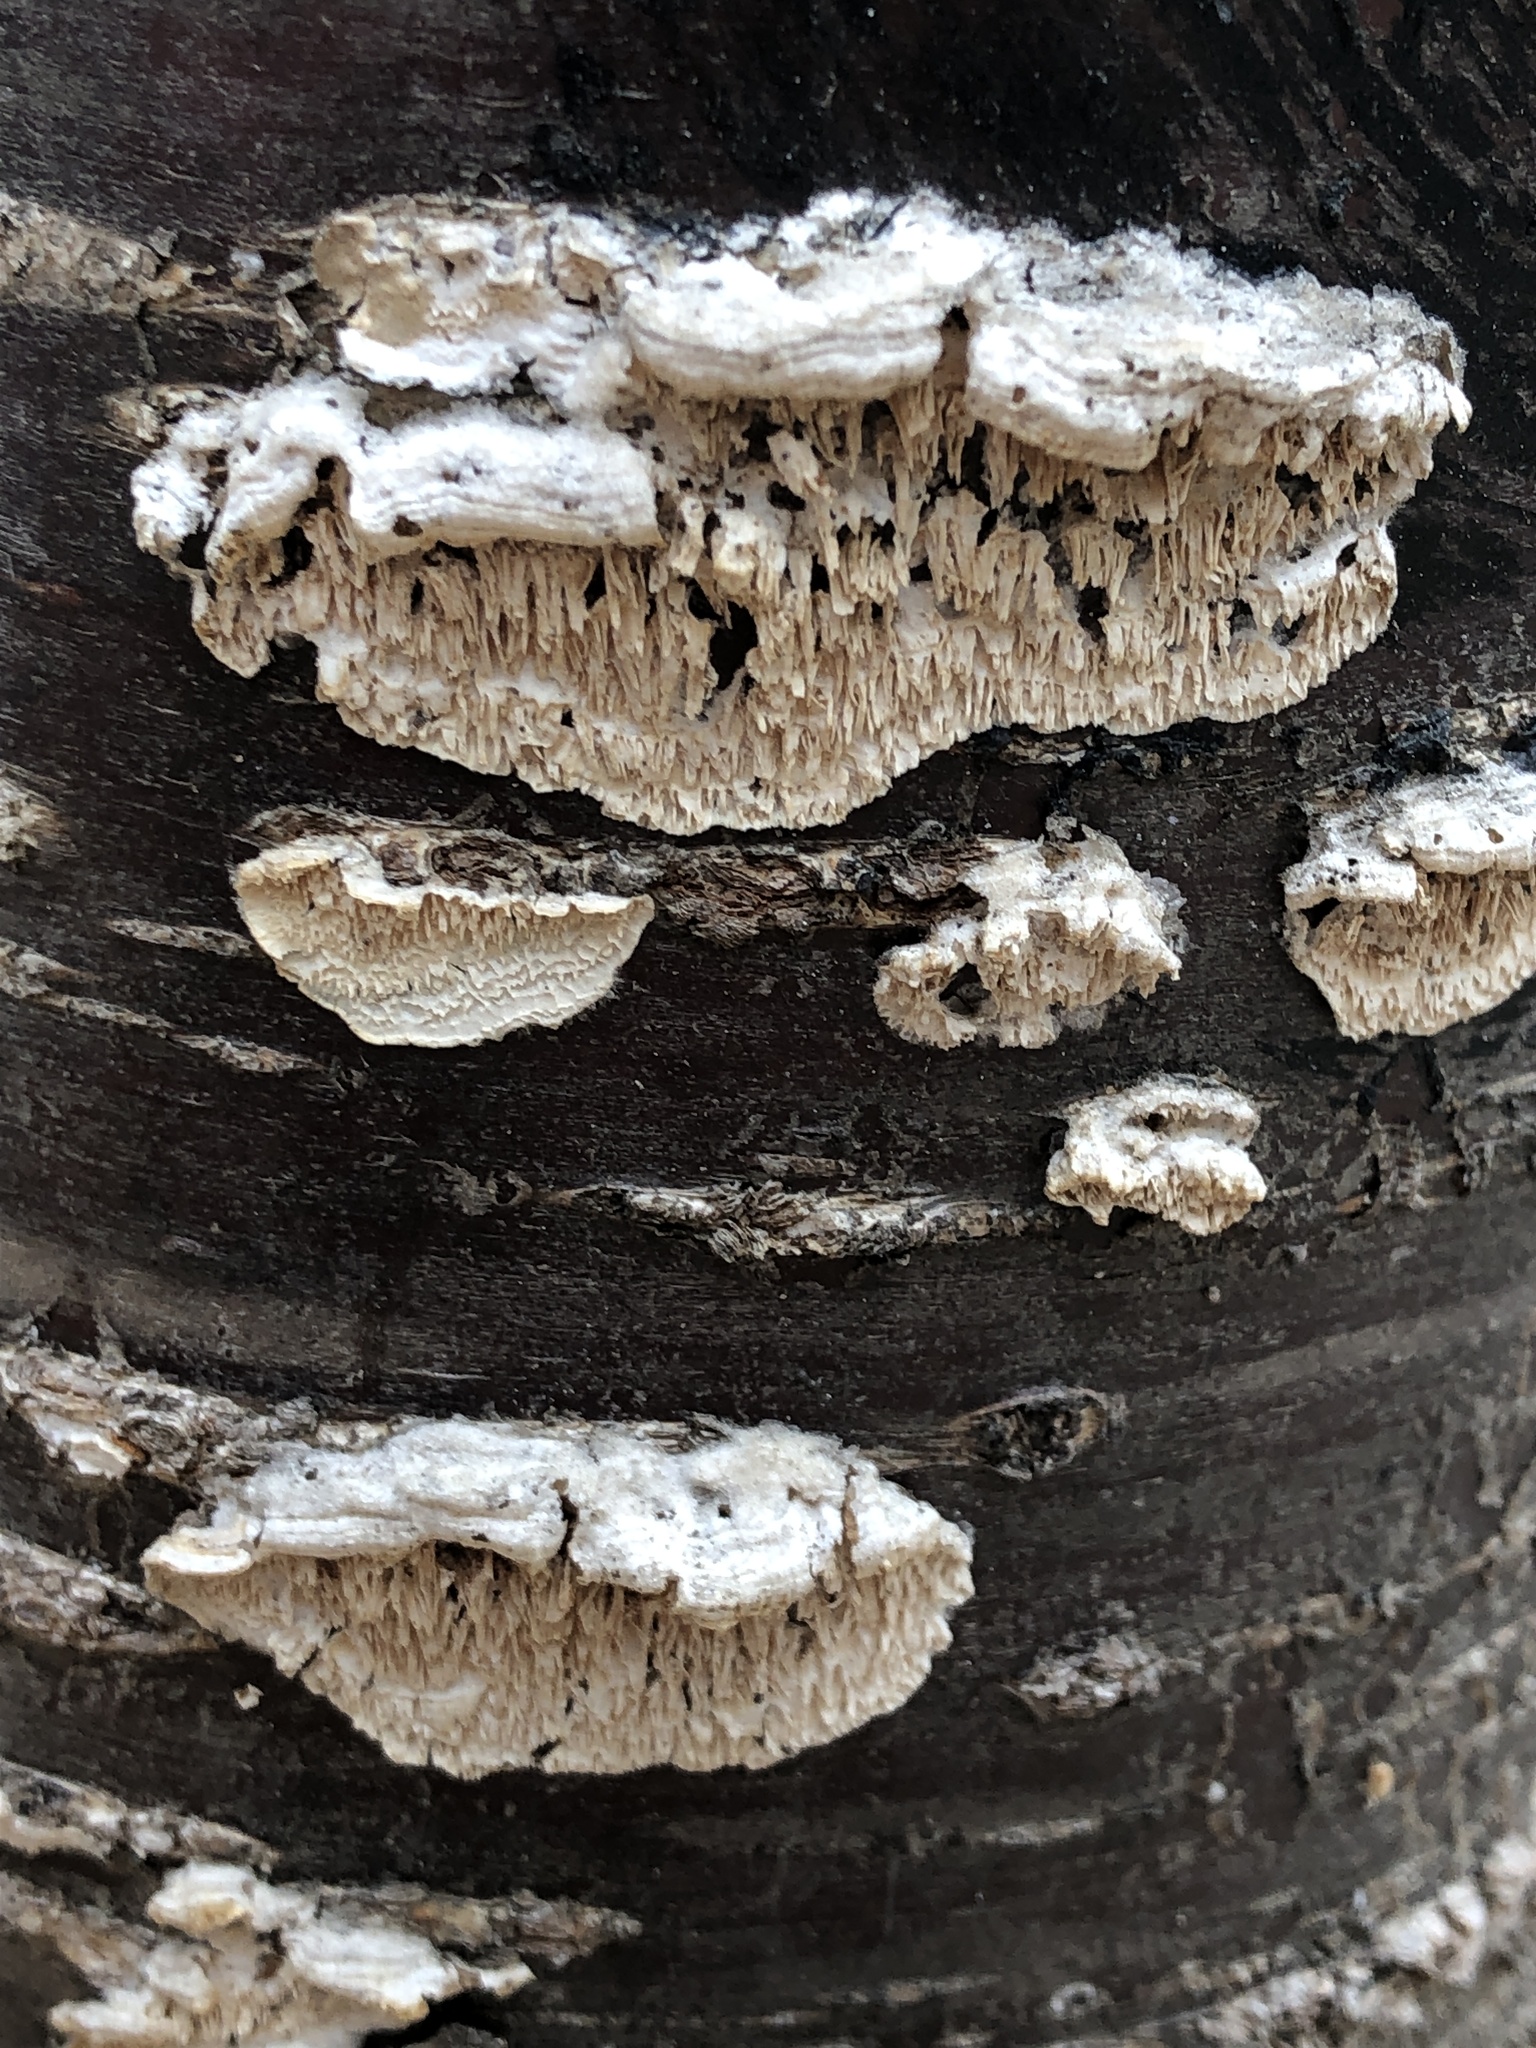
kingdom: Fungi
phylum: Basidiomycota
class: Agaricomycetes
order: Polyporales
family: Irpicaceae
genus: Irpex
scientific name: Irpex lacteus
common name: Milk-white toothed polypore
